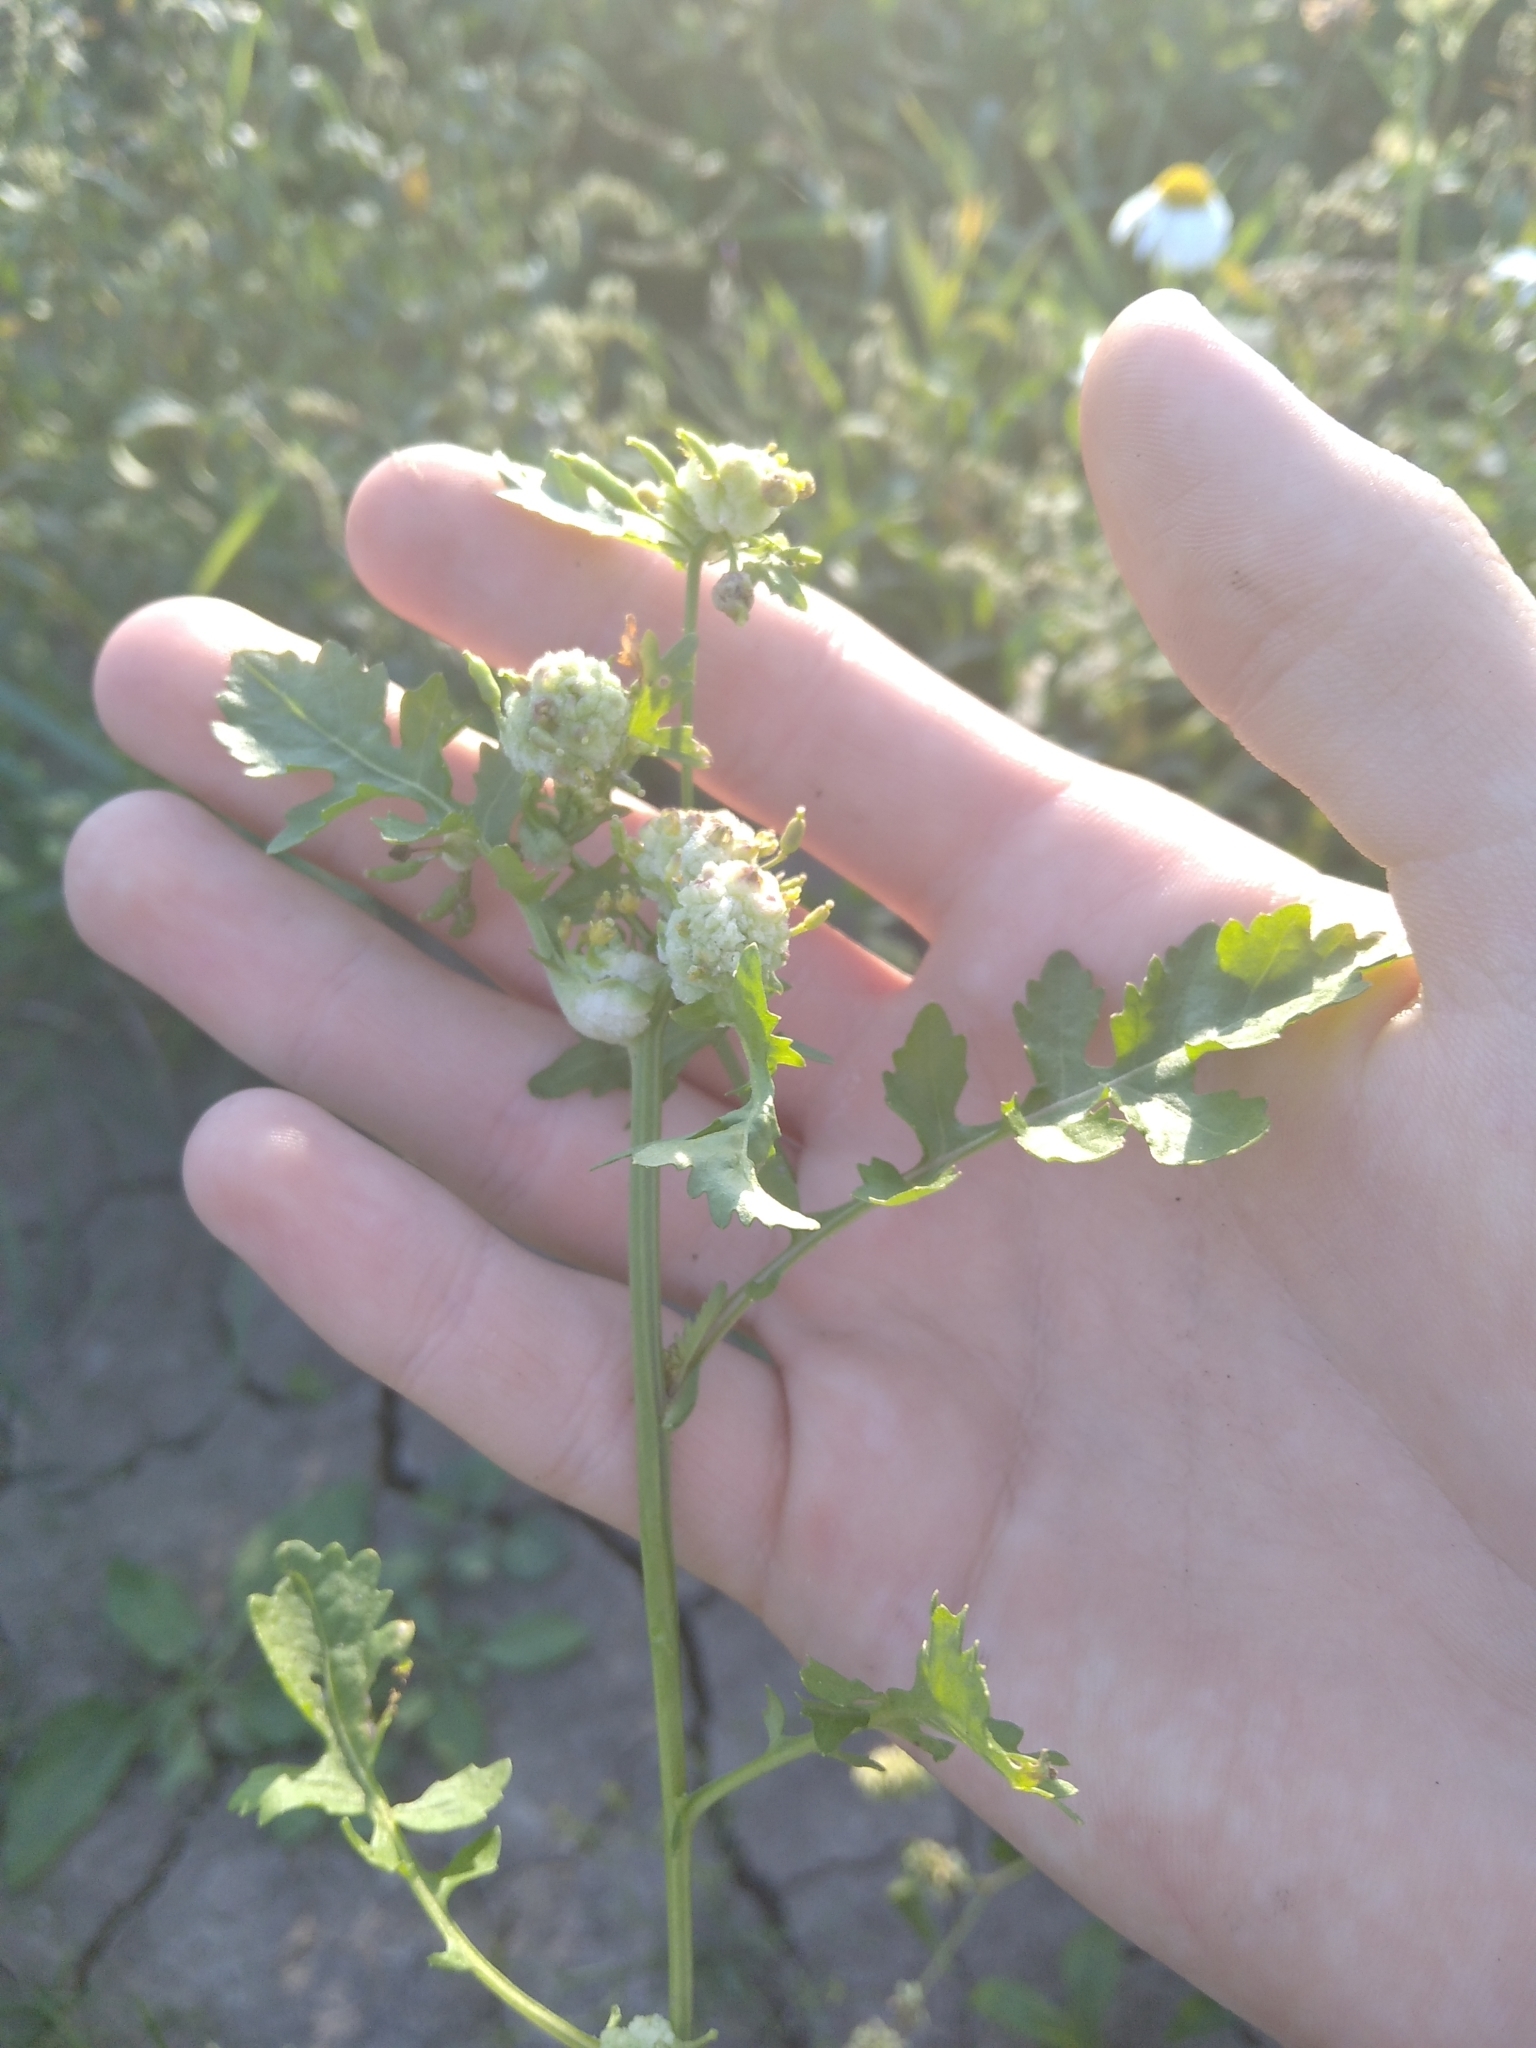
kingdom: Plantae
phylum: Tracheophyta
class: Magnoliopsida
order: Brassicales
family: Brassicaceae
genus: Rorippa
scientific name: Rorippa palustris
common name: Marsh yellow-cress
